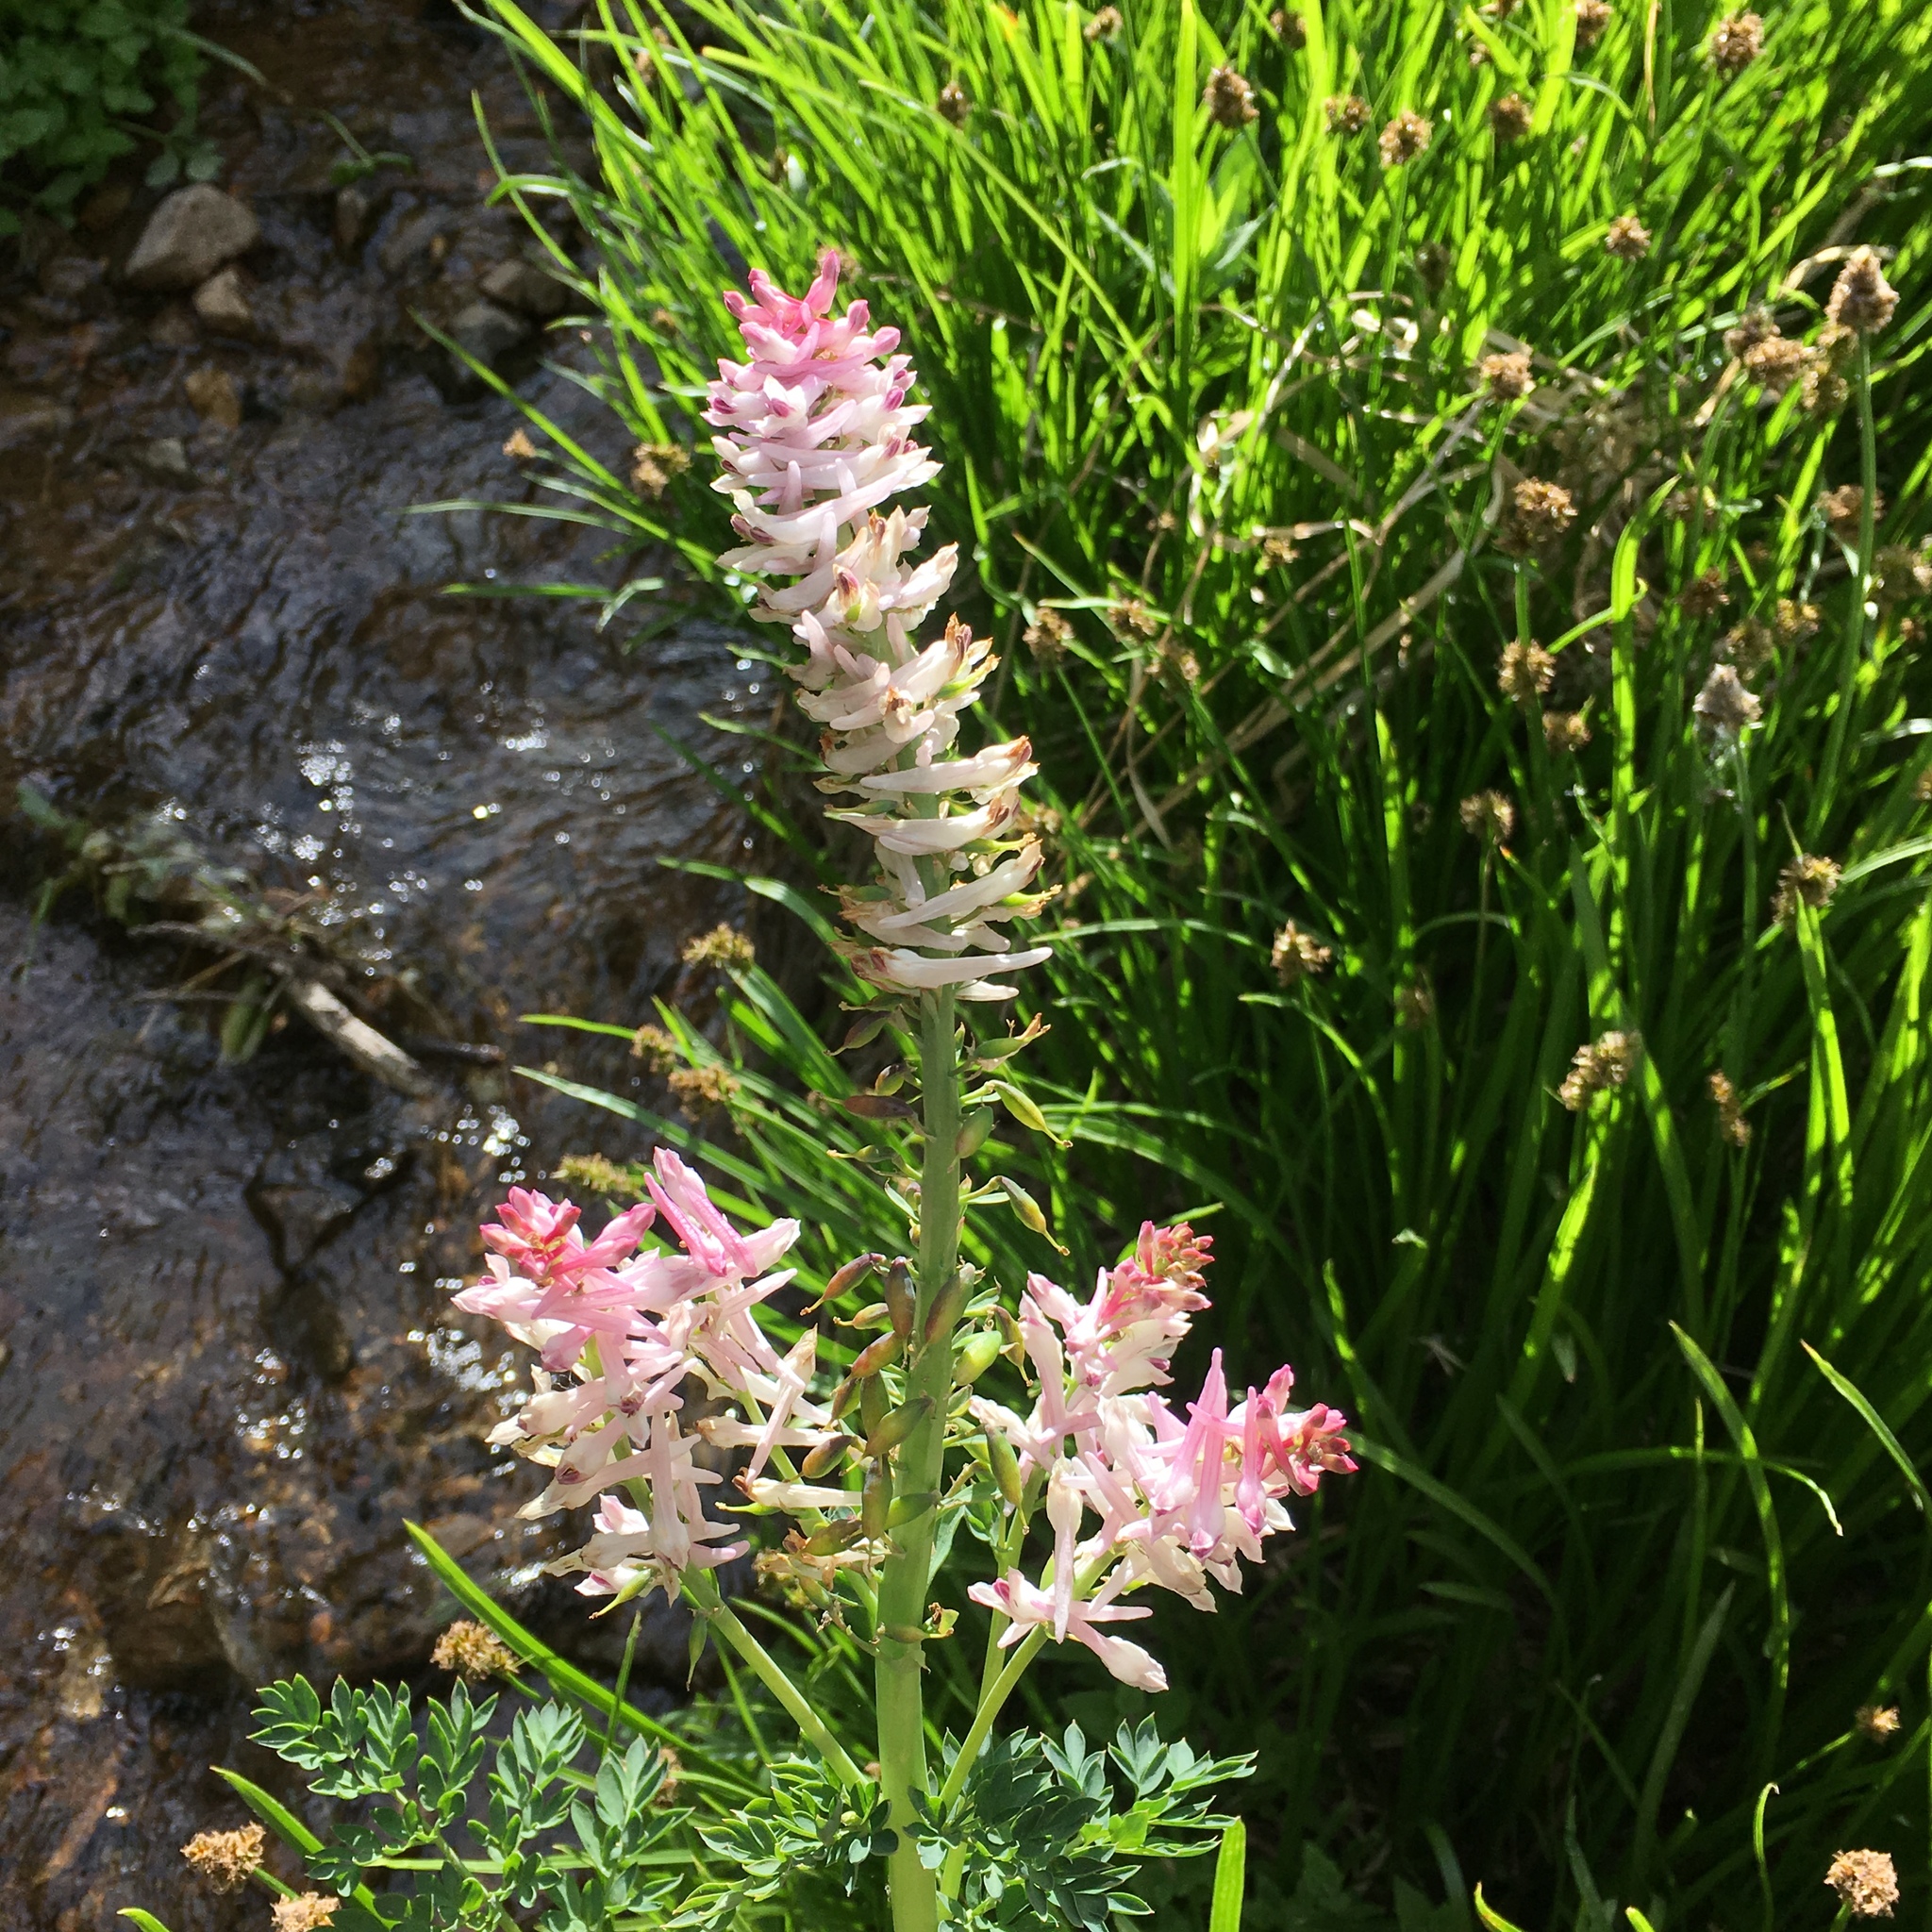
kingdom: Plantae
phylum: Tracheophyta
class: Magnoliopsida
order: Ranunculales
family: Papaveraceae
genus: Corydalis
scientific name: Corydalis caseana
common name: Fitweed
